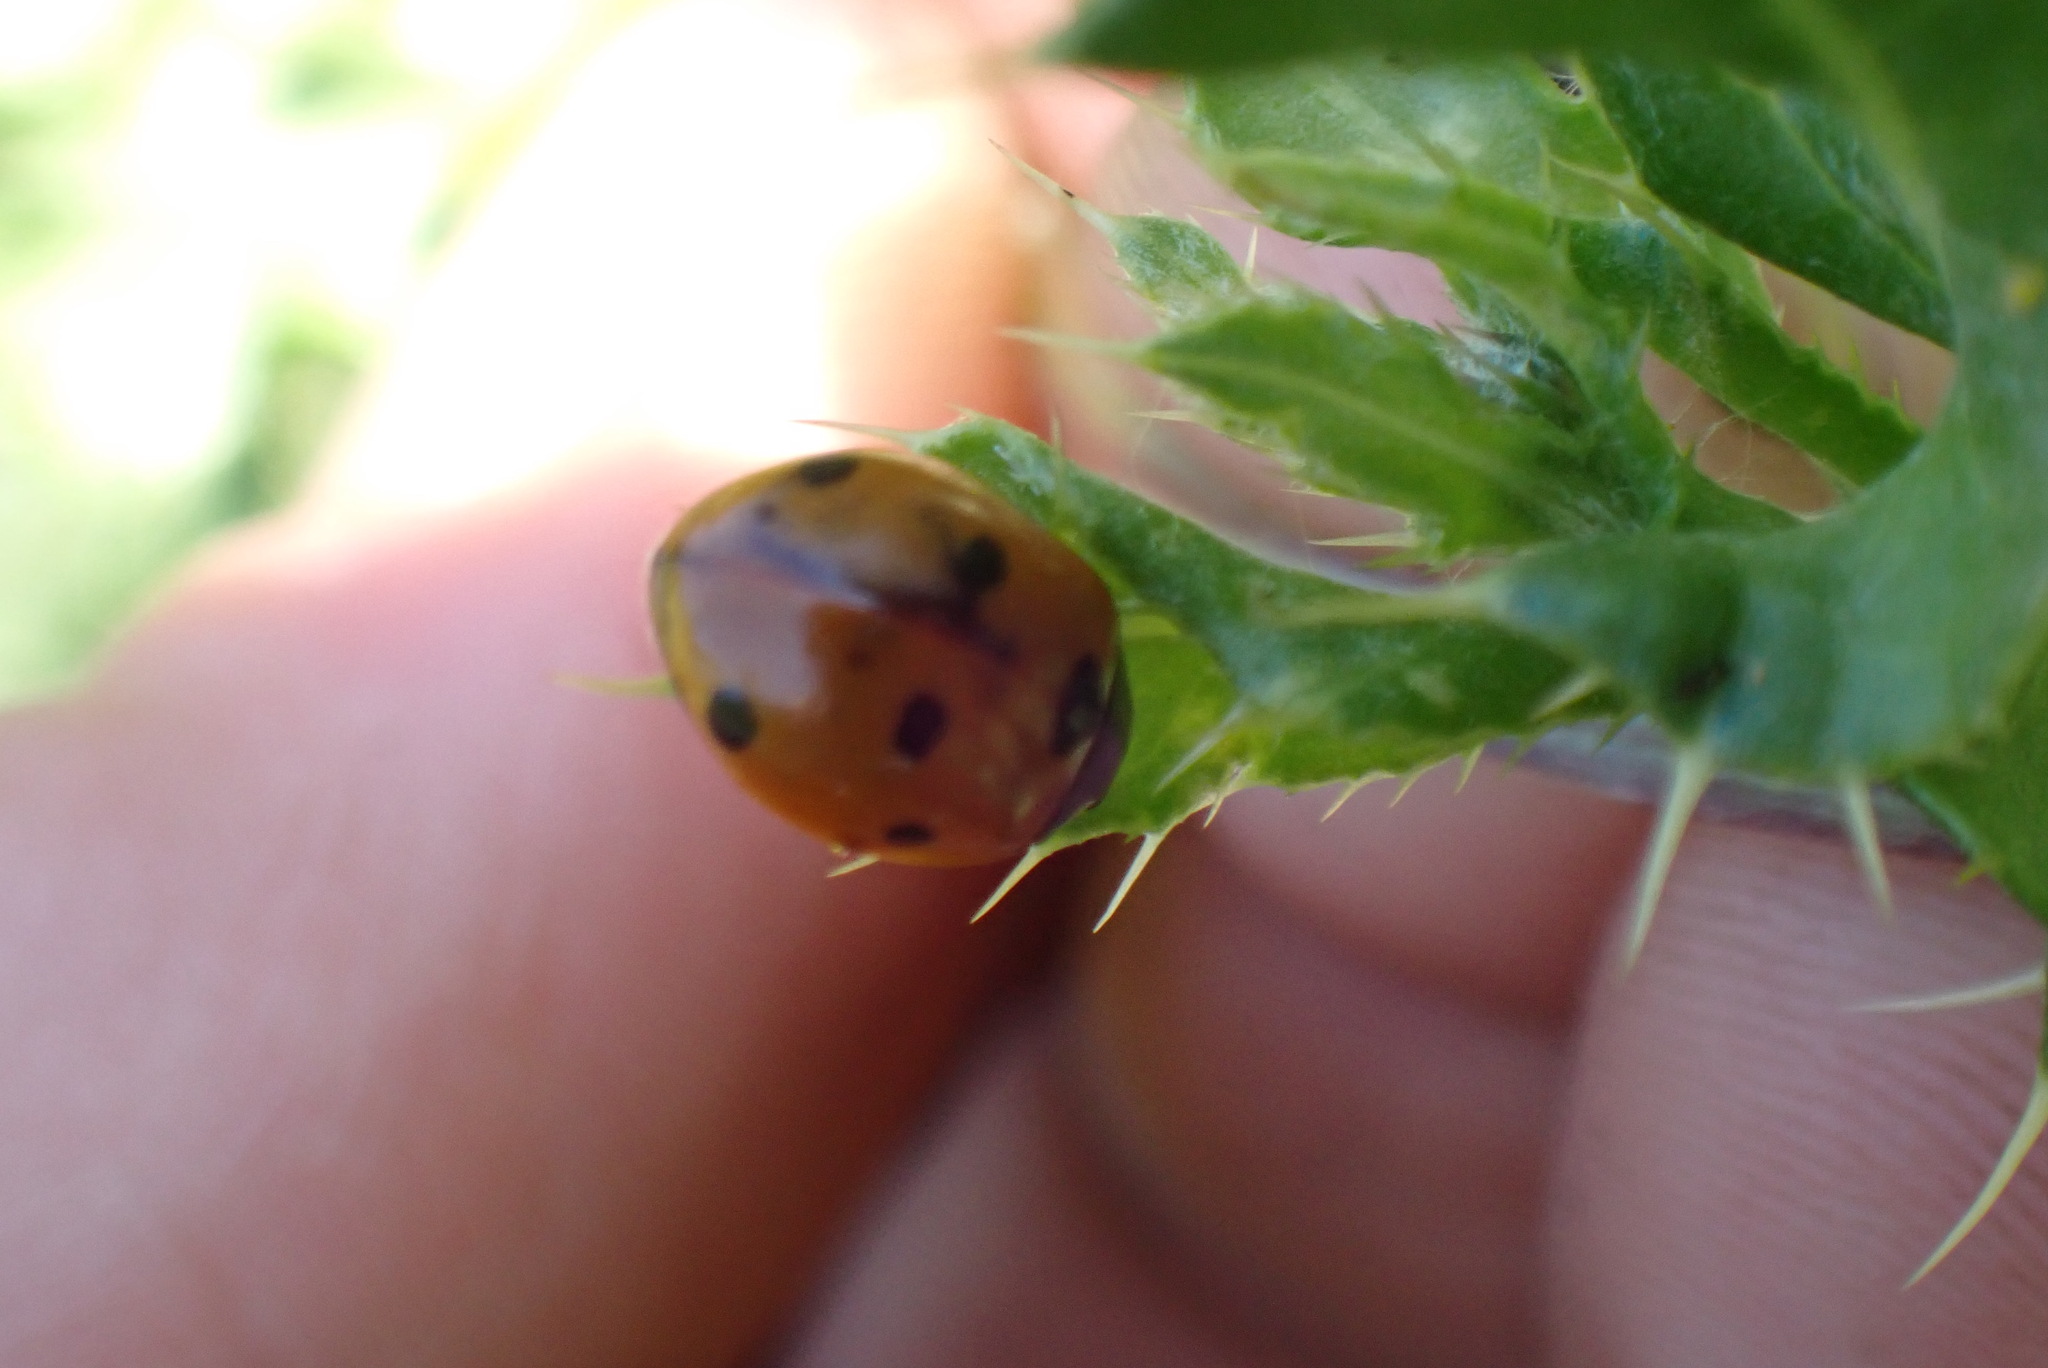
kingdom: Animalia
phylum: Arthropoda
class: Insecta
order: Coleoptera
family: Coccinellidae
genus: Coccinella
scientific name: Coccinella septempunctata
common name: Sevenspotted lady beetle
